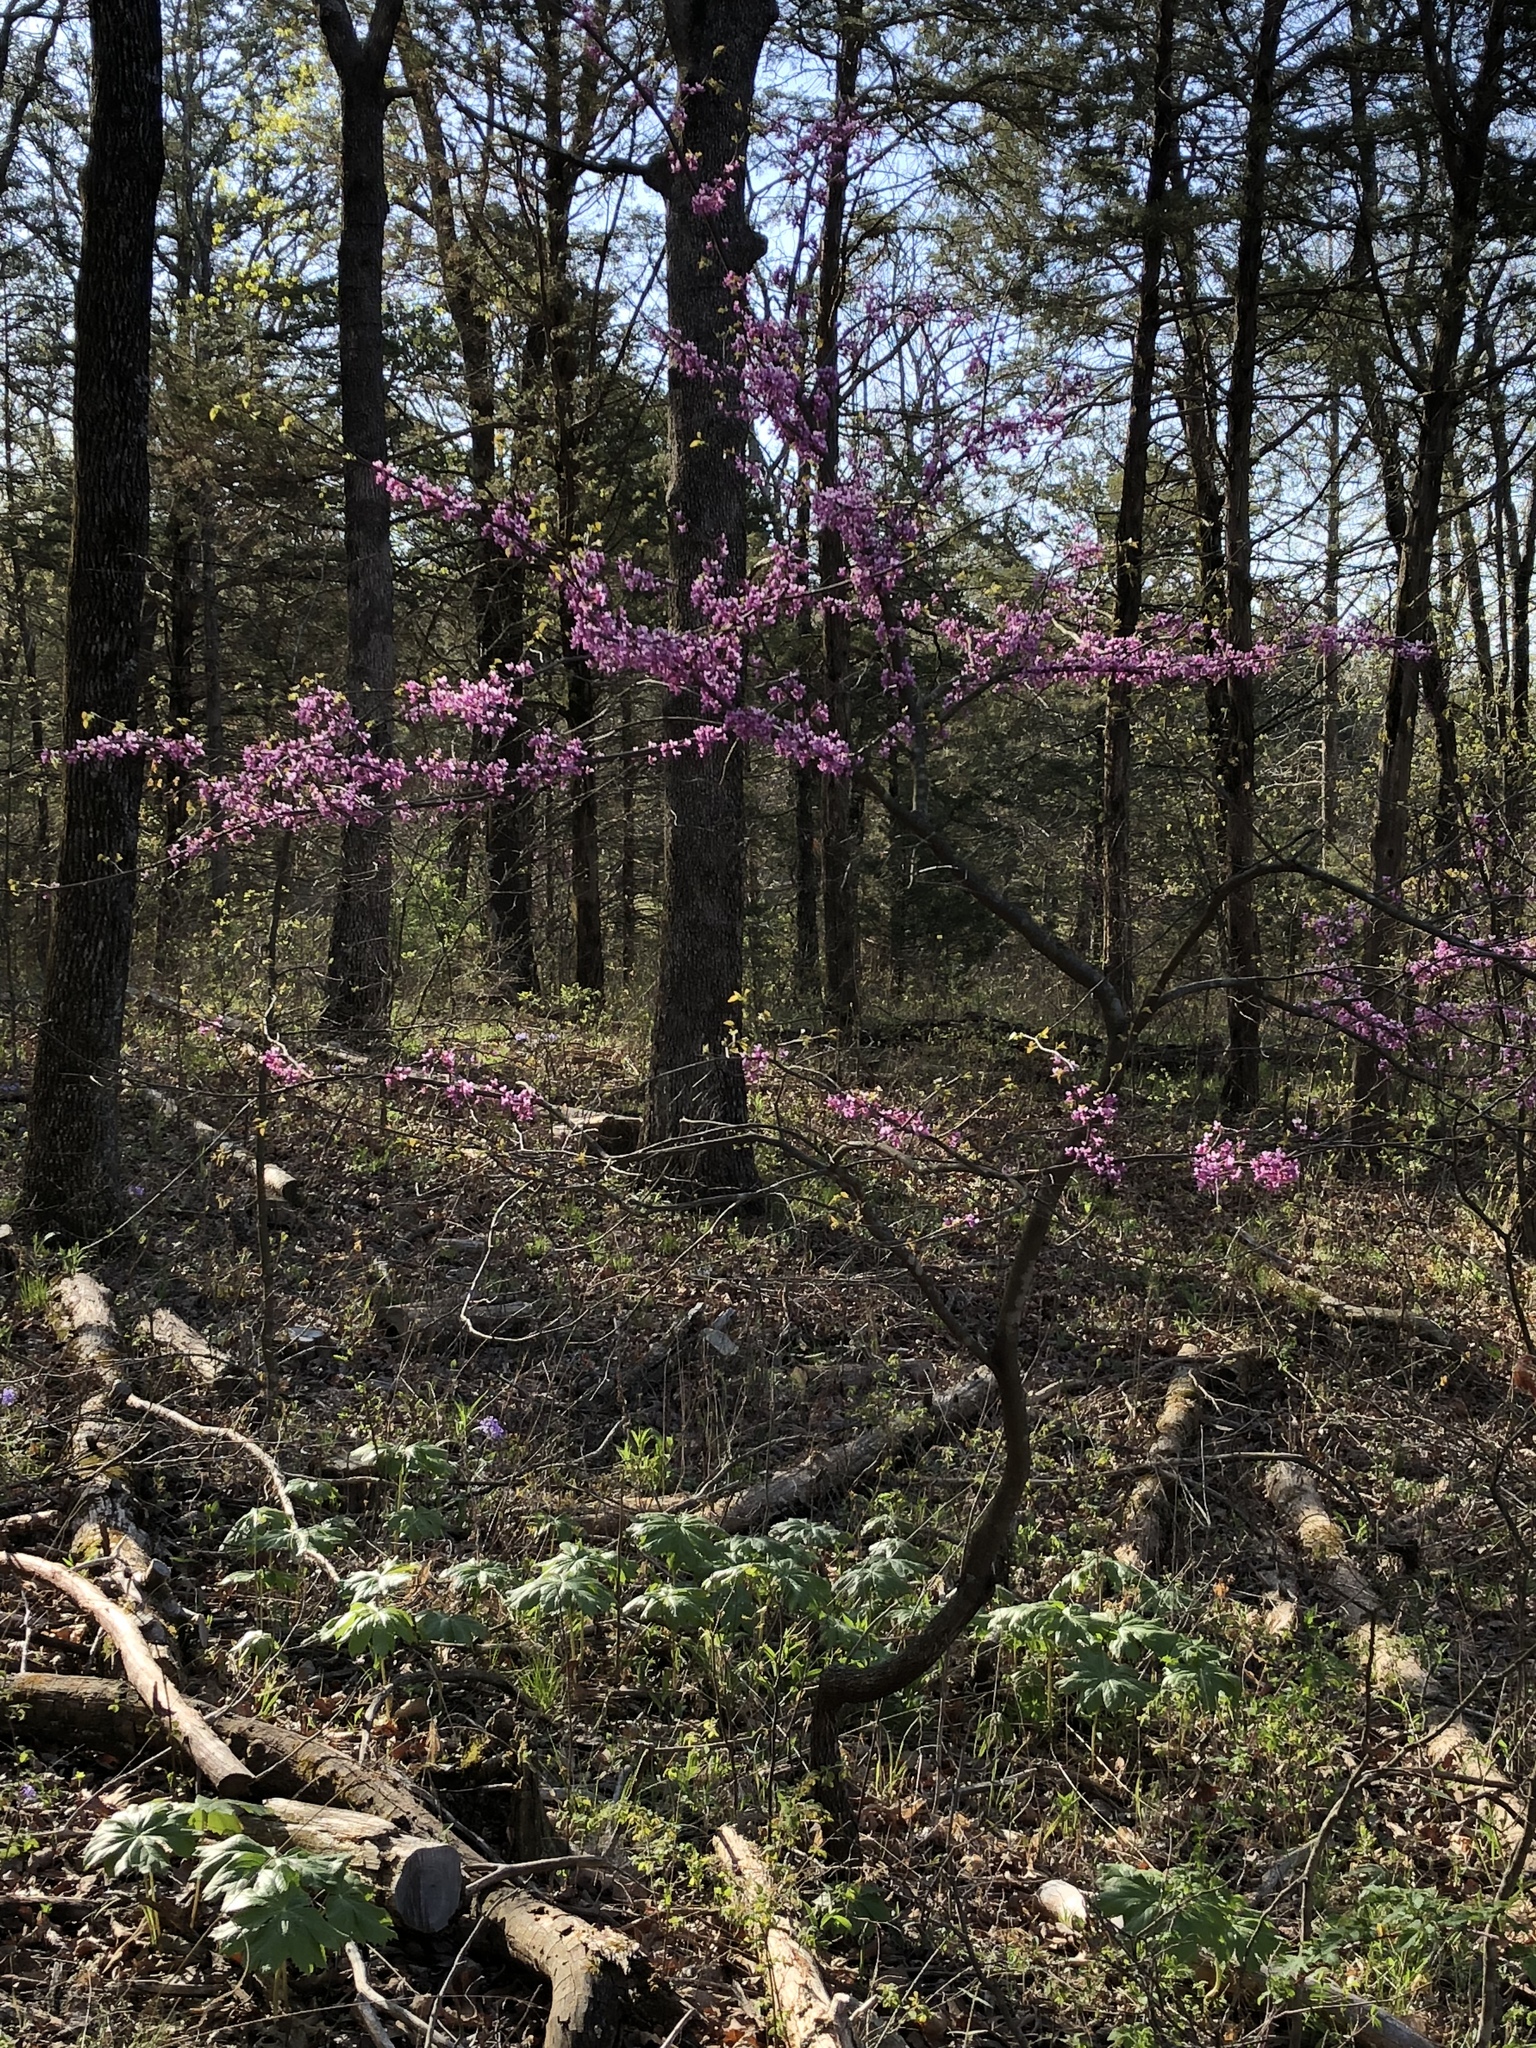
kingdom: Plantae
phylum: Tracheophyta
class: Magnoliopsida
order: Fabales
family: Fabaceae
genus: Cercis
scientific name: Cercis canadensis
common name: Eastern redbud
